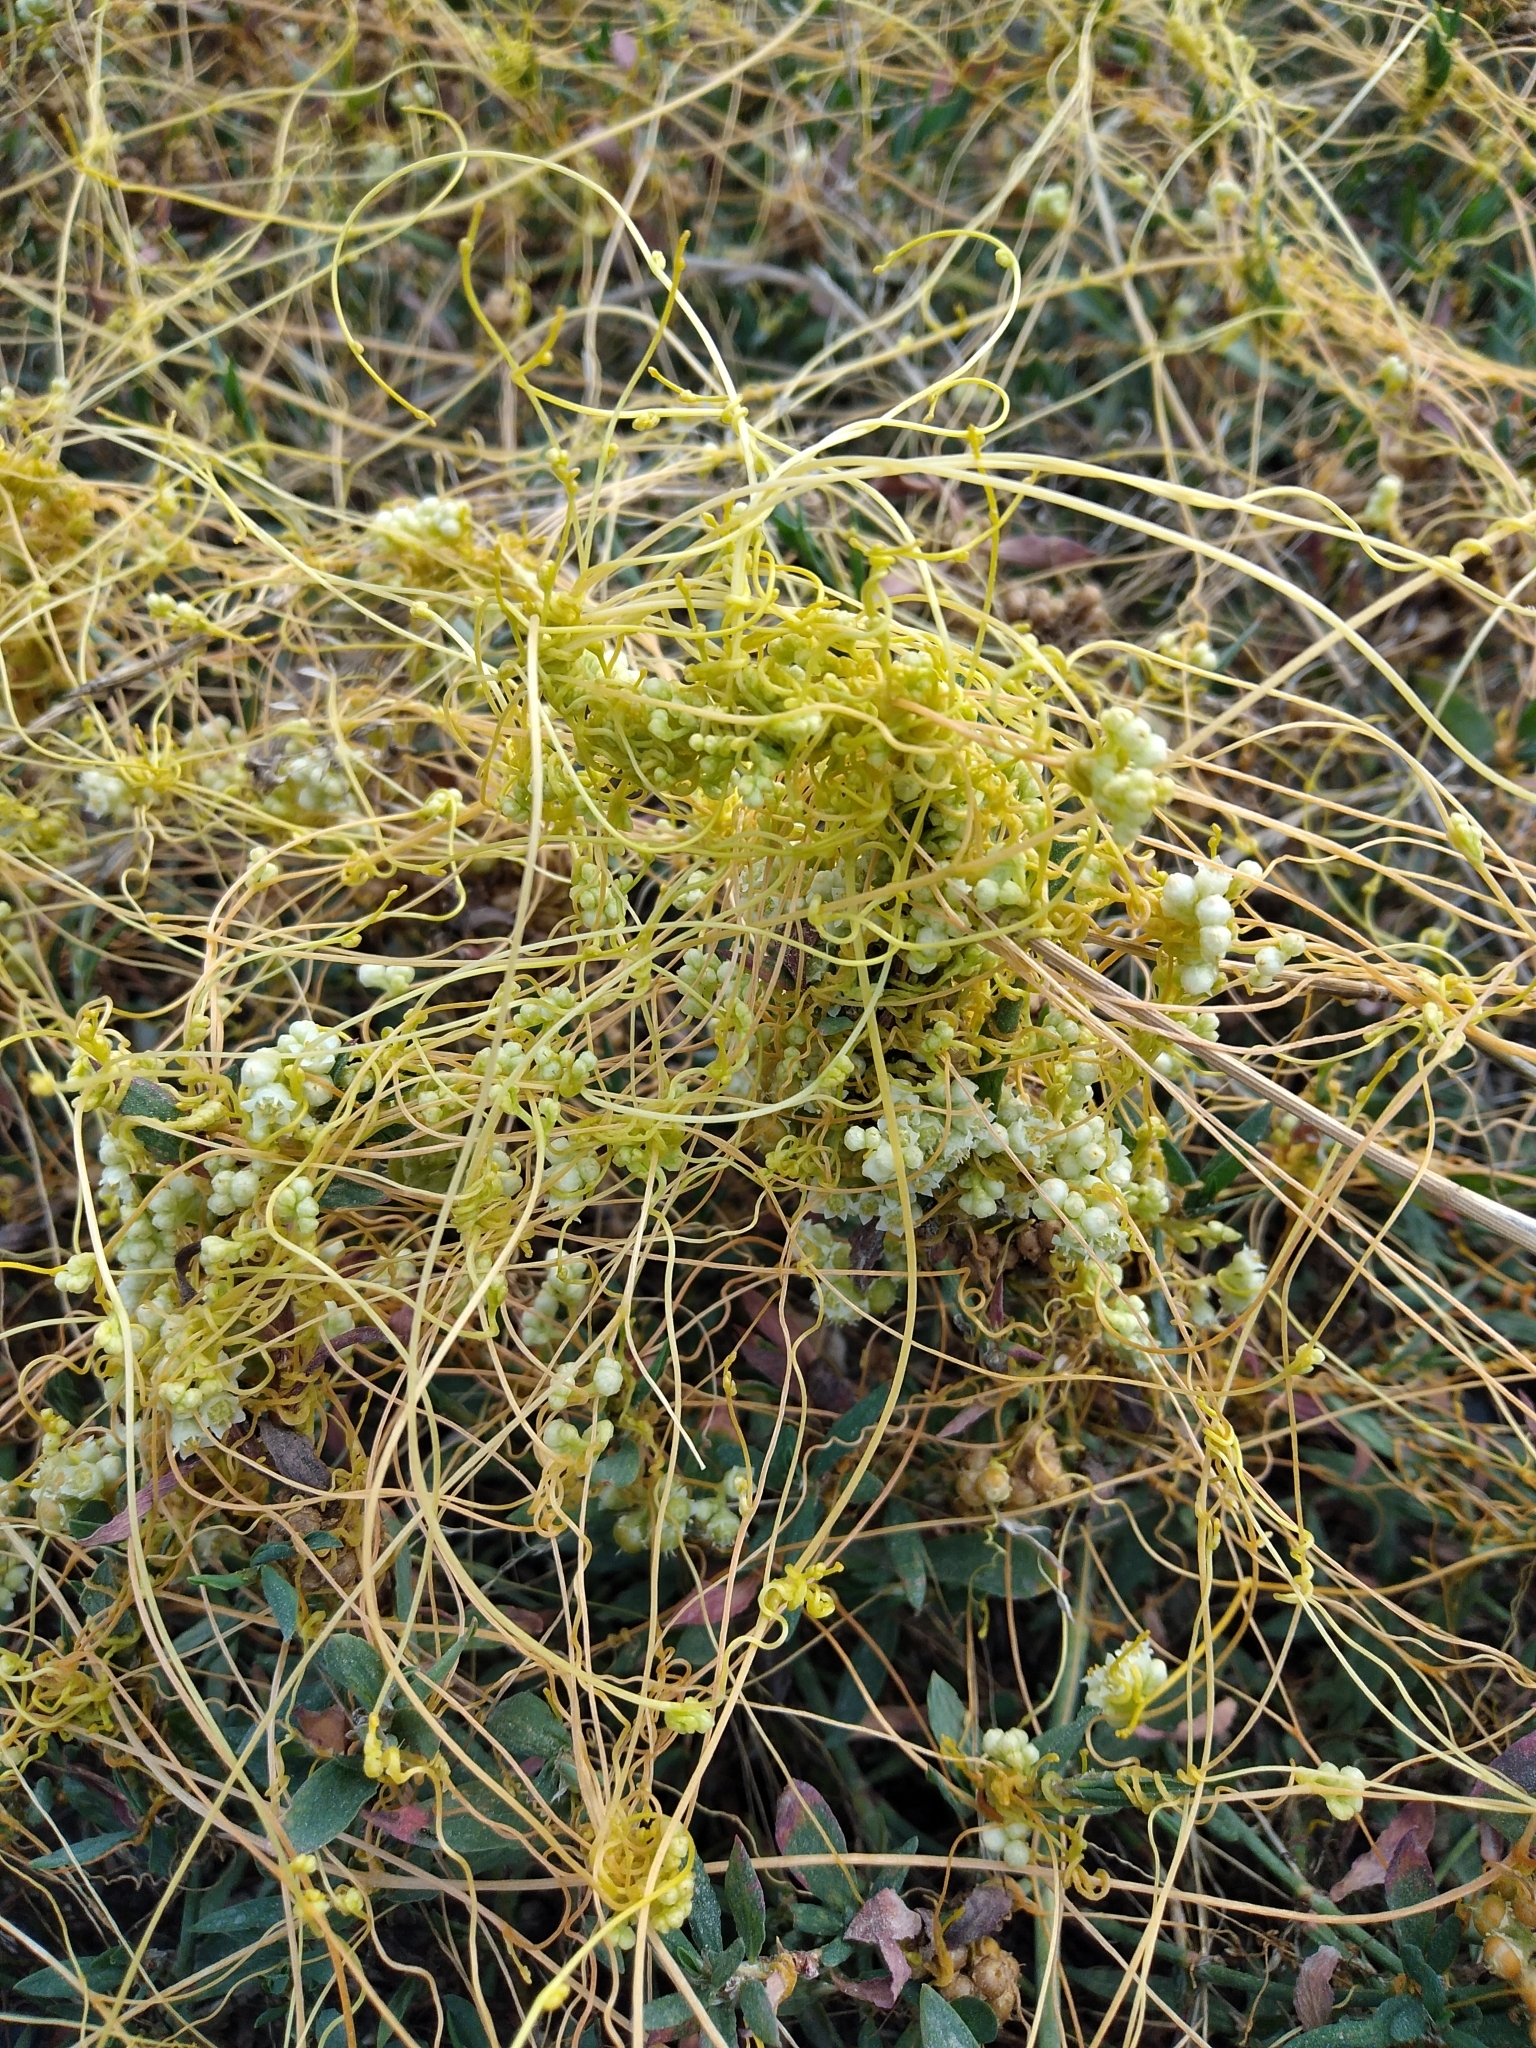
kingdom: Plantae
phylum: Tracheophyta
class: Magnoliopsida
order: Solanales
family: Convolvulaceae
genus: Cuscuta
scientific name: Cuscuta campestris
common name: Yellow dodder
